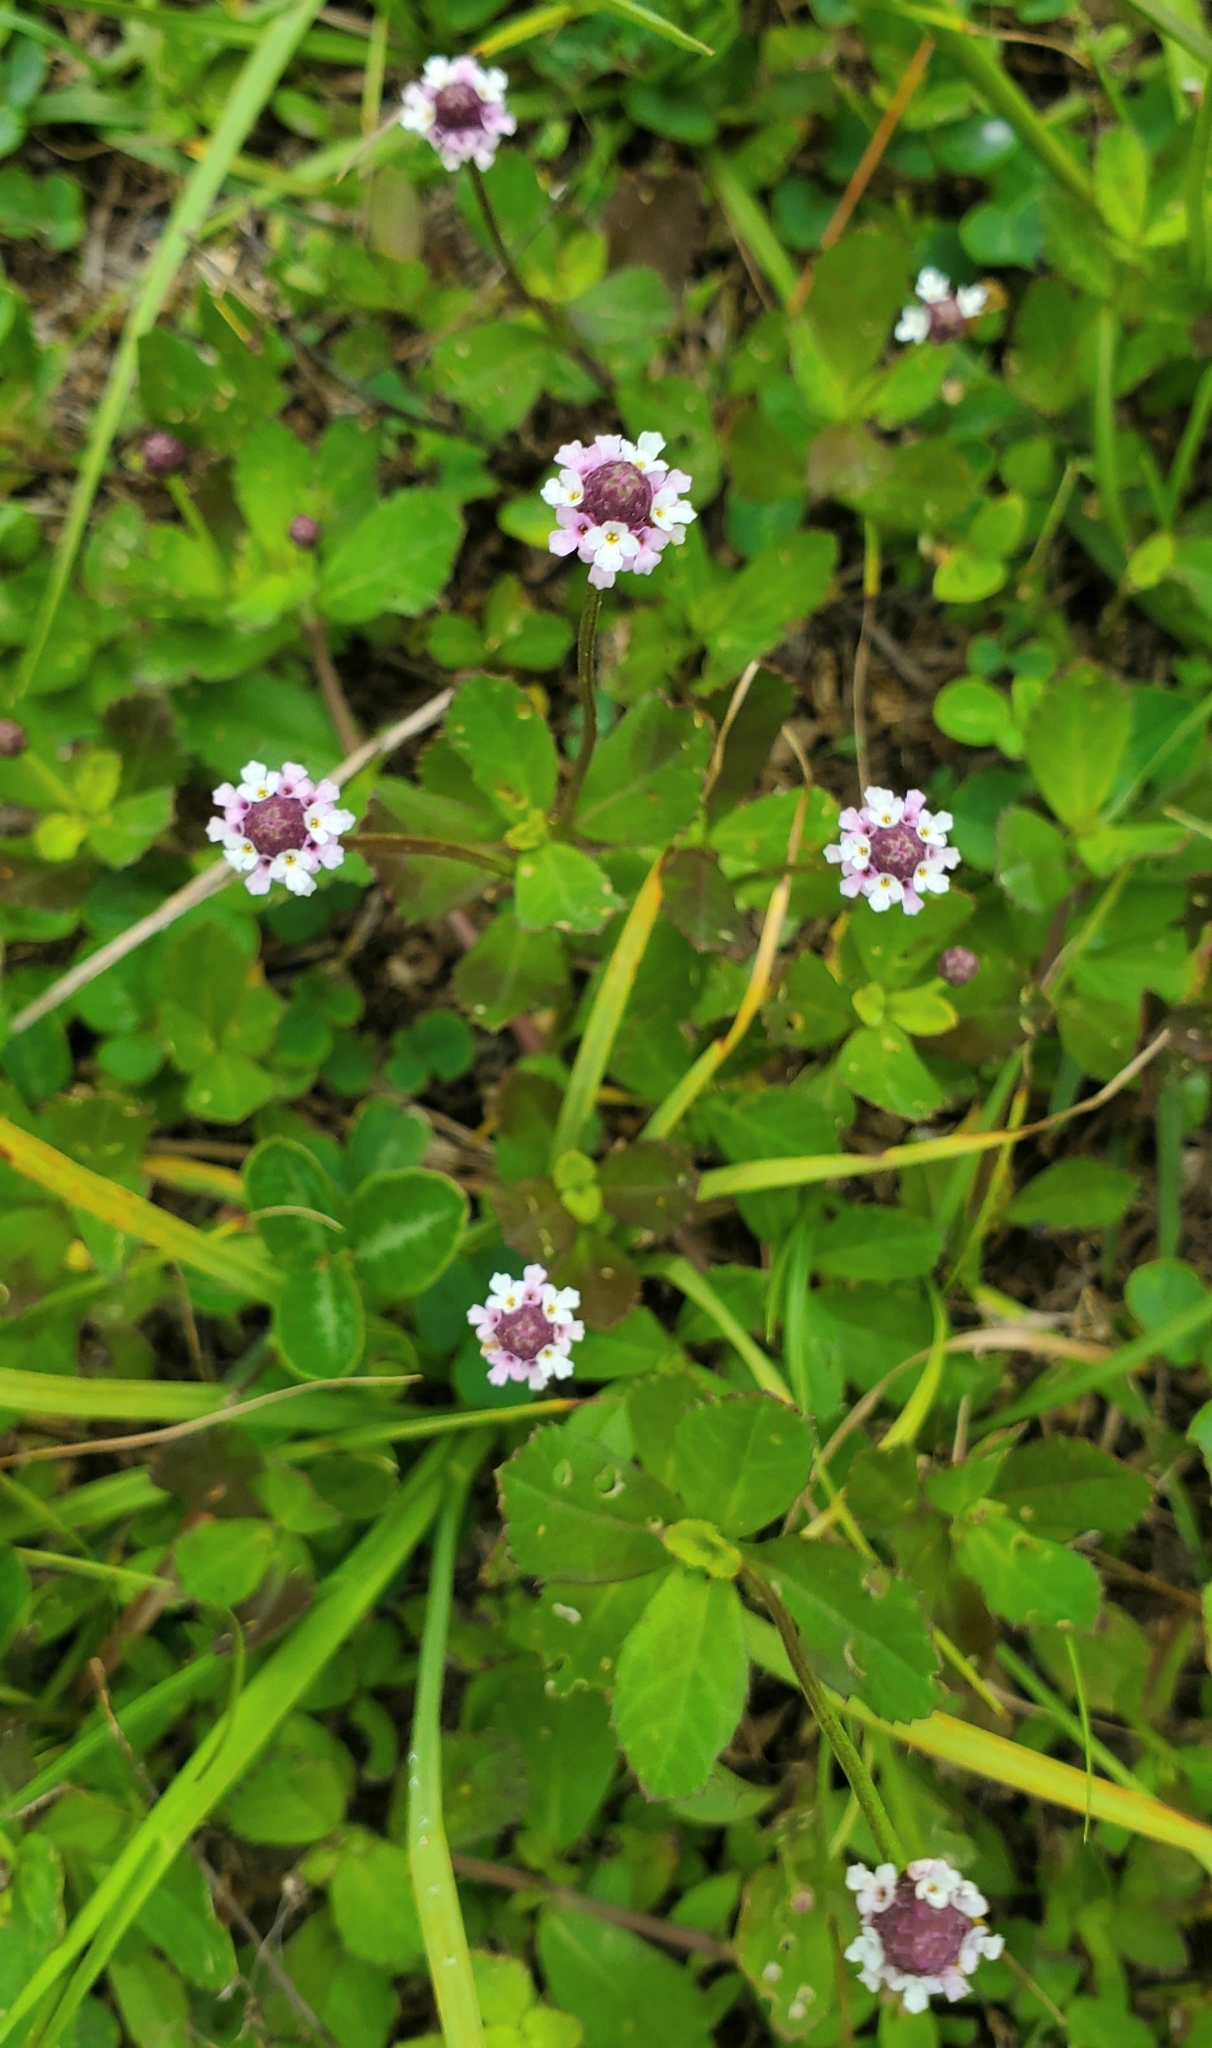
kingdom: Plantae
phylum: Tracheophyta
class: Magnoliopsida
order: Lamiales
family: Verbenaceae
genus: Phyla
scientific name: Phyla nodiflora
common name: Frogfruit
